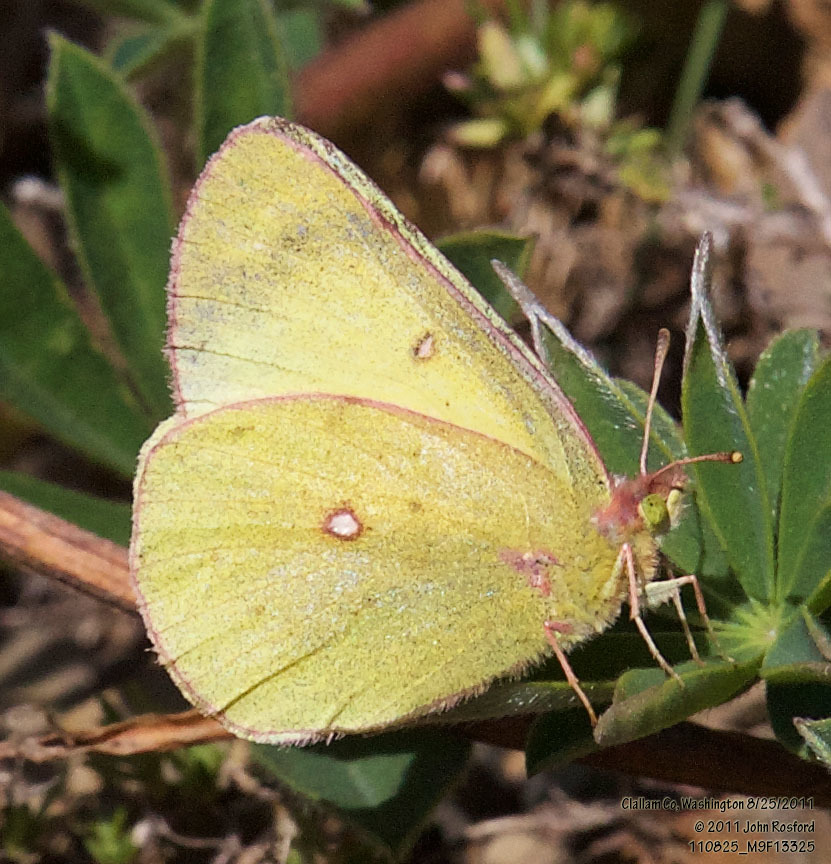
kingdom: Animalia
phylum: Arthropoda
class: Insecta
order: Lepidoptera
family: Pieridae
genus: Colias
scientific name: Colias occidentalis
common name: Western sulphur
